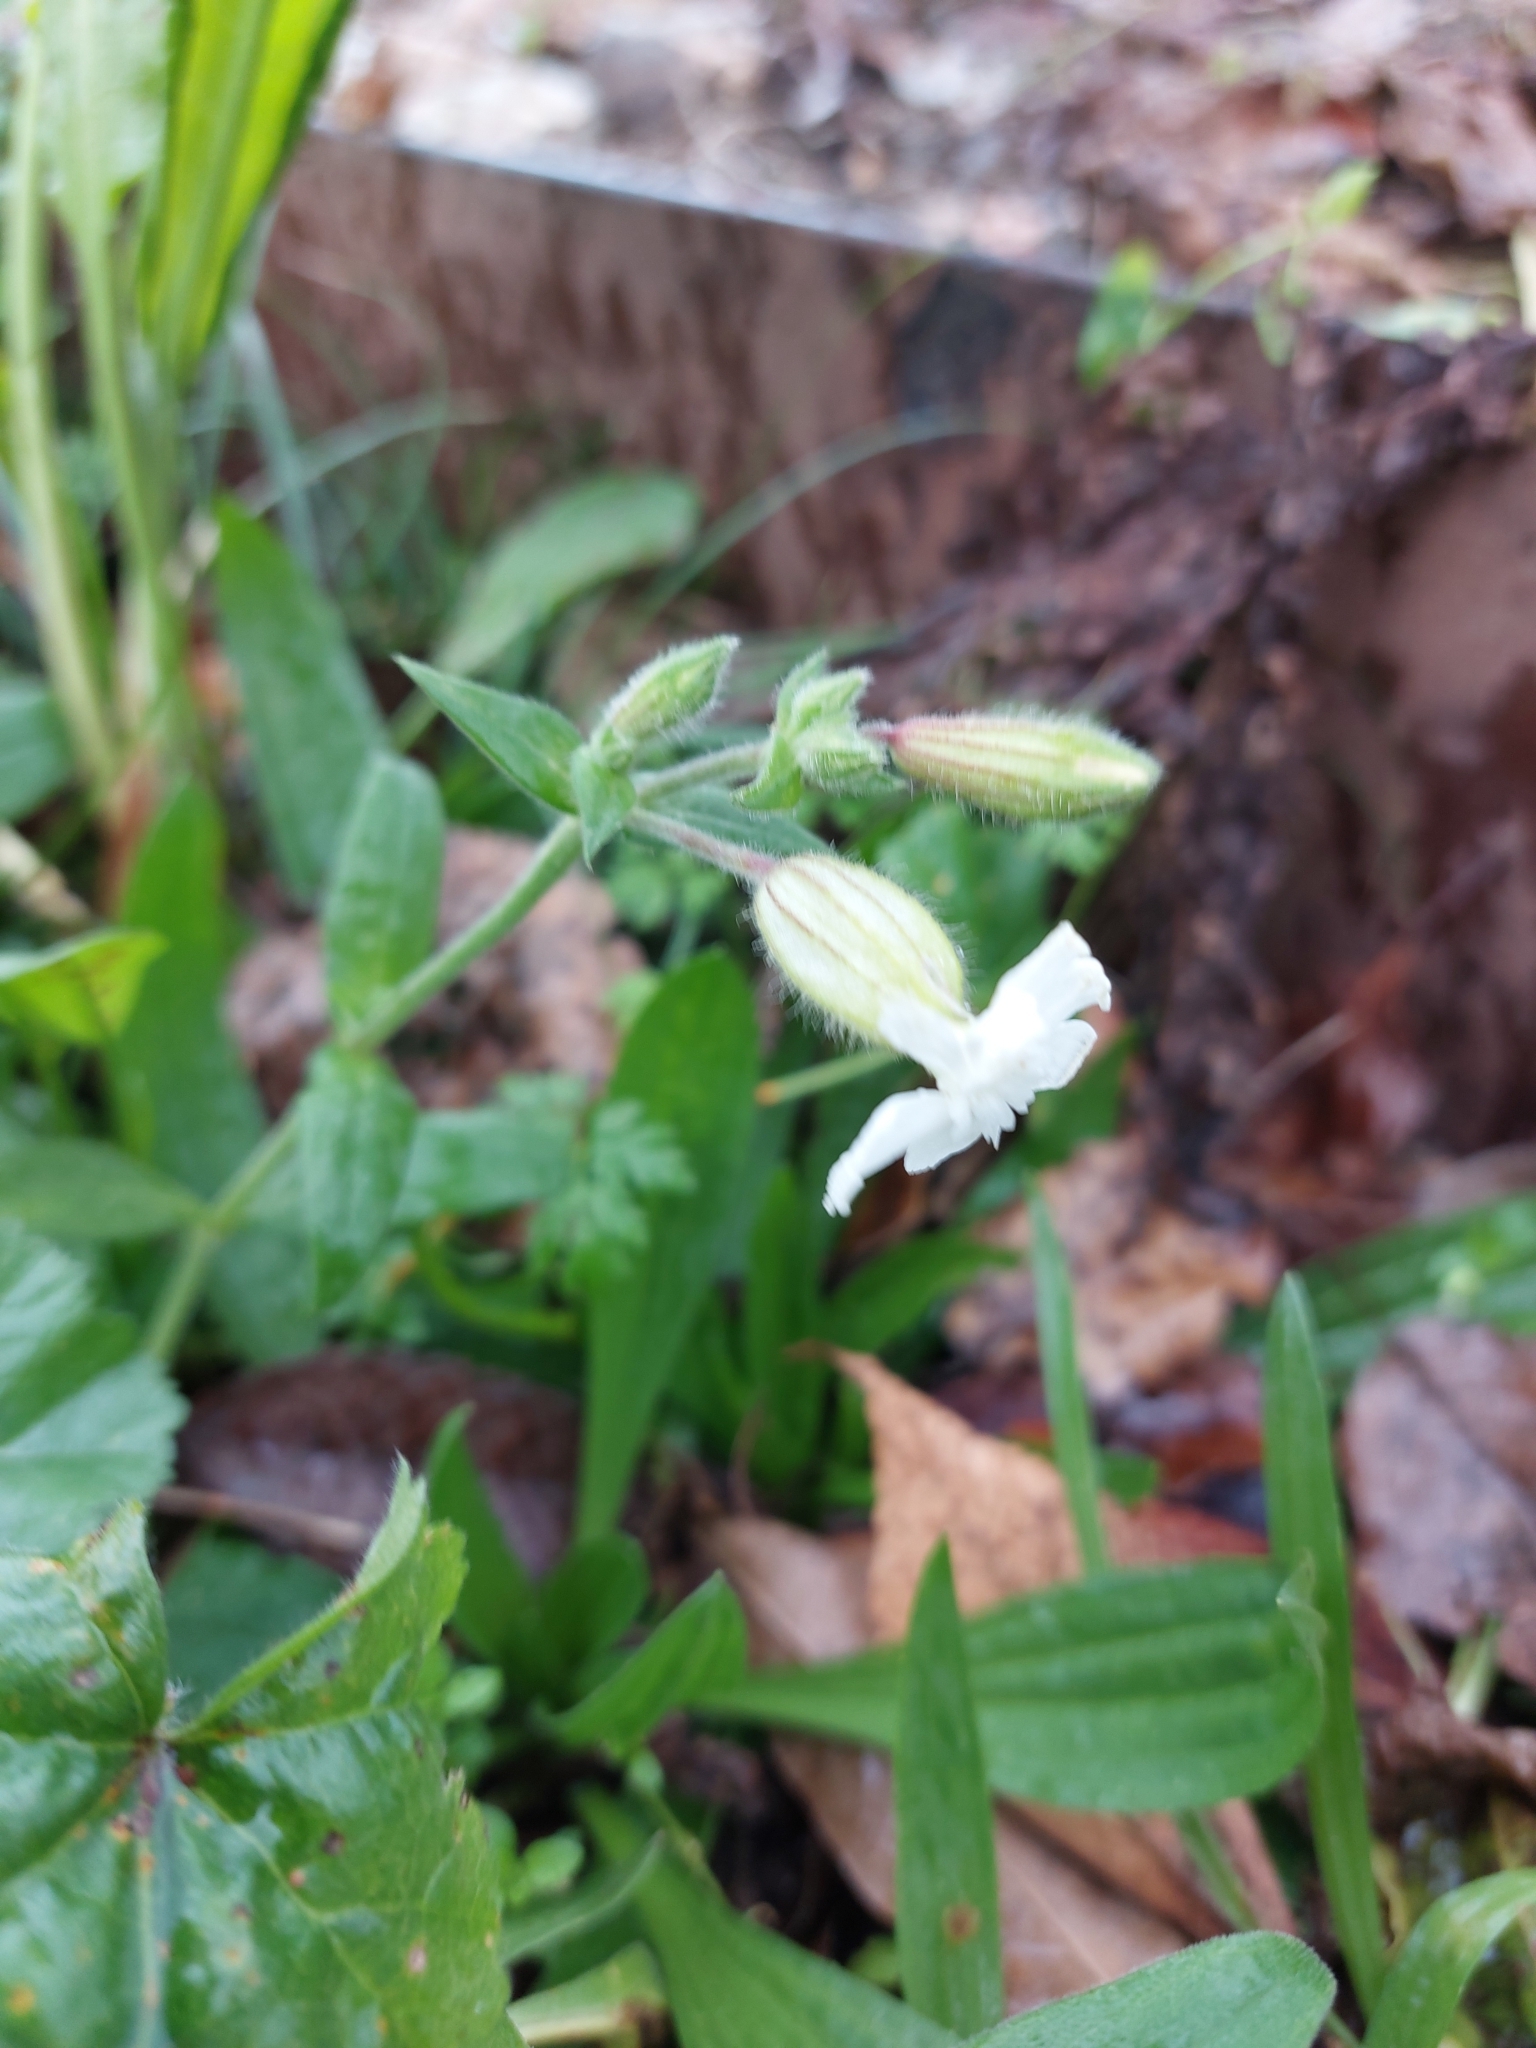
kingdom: Plantae
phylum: Tracheophyta
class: Magnoliopsida
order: Caryophyllales
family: Caryophyllaceae
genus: Silene
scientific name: Silene latifolia
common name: White campion
